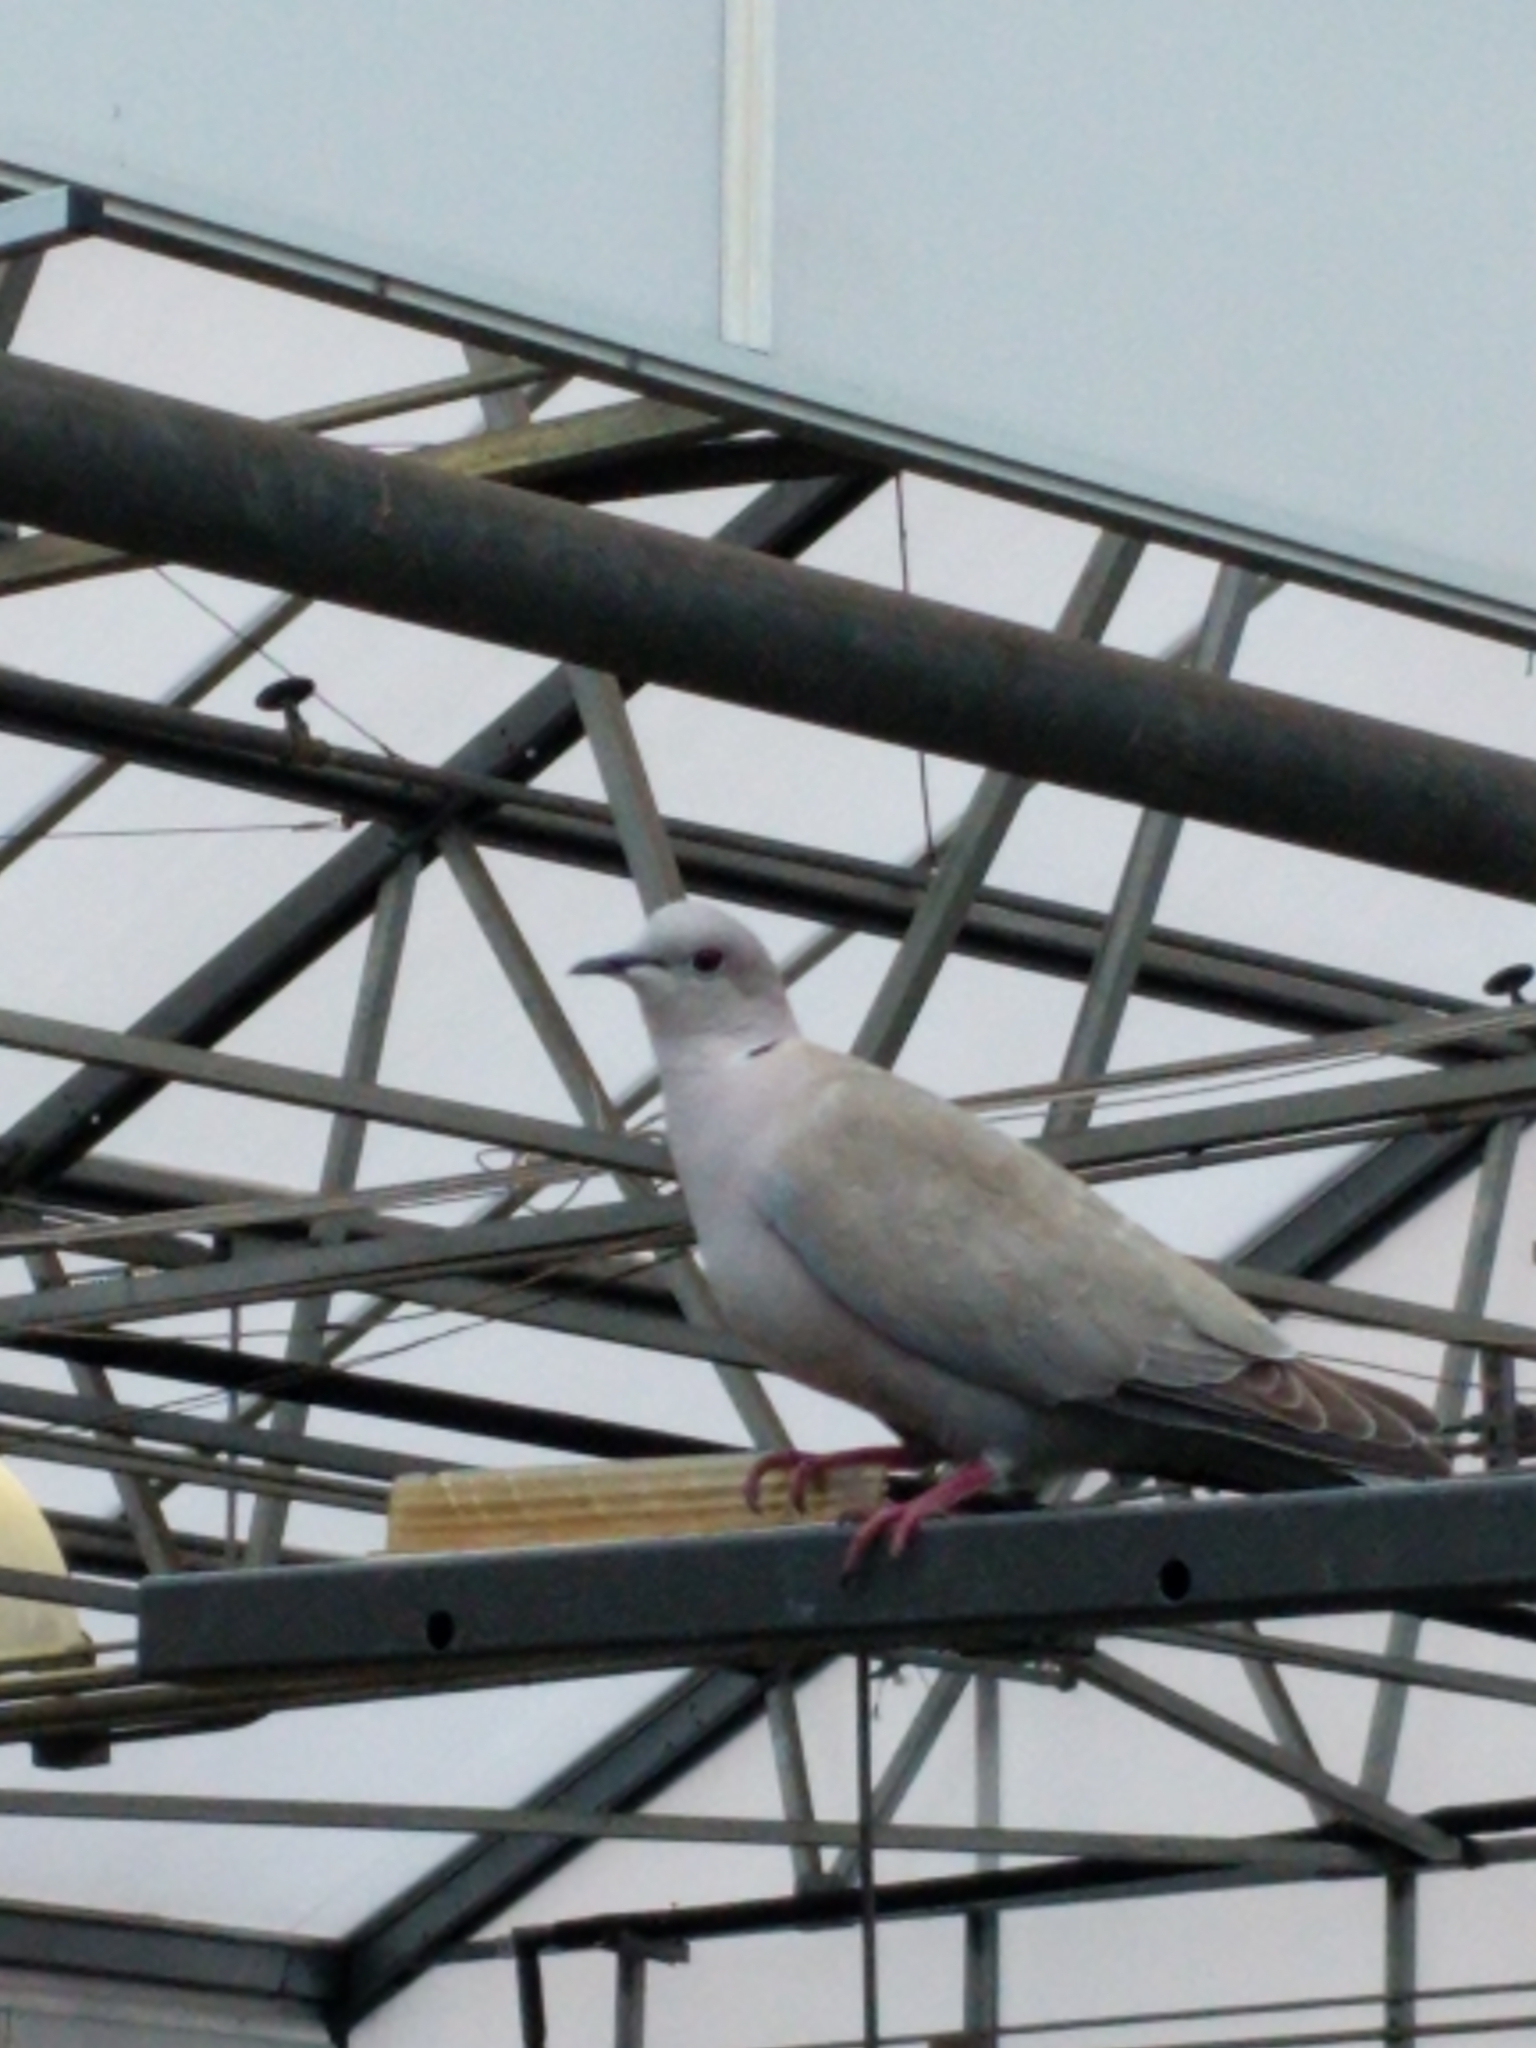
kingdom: Animalia
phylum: Chordata
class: Aves
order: Columbiformes
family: Columbidae
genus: Streptopelia
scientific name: Streptopelia decaocto
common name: Eurasian collared dove
